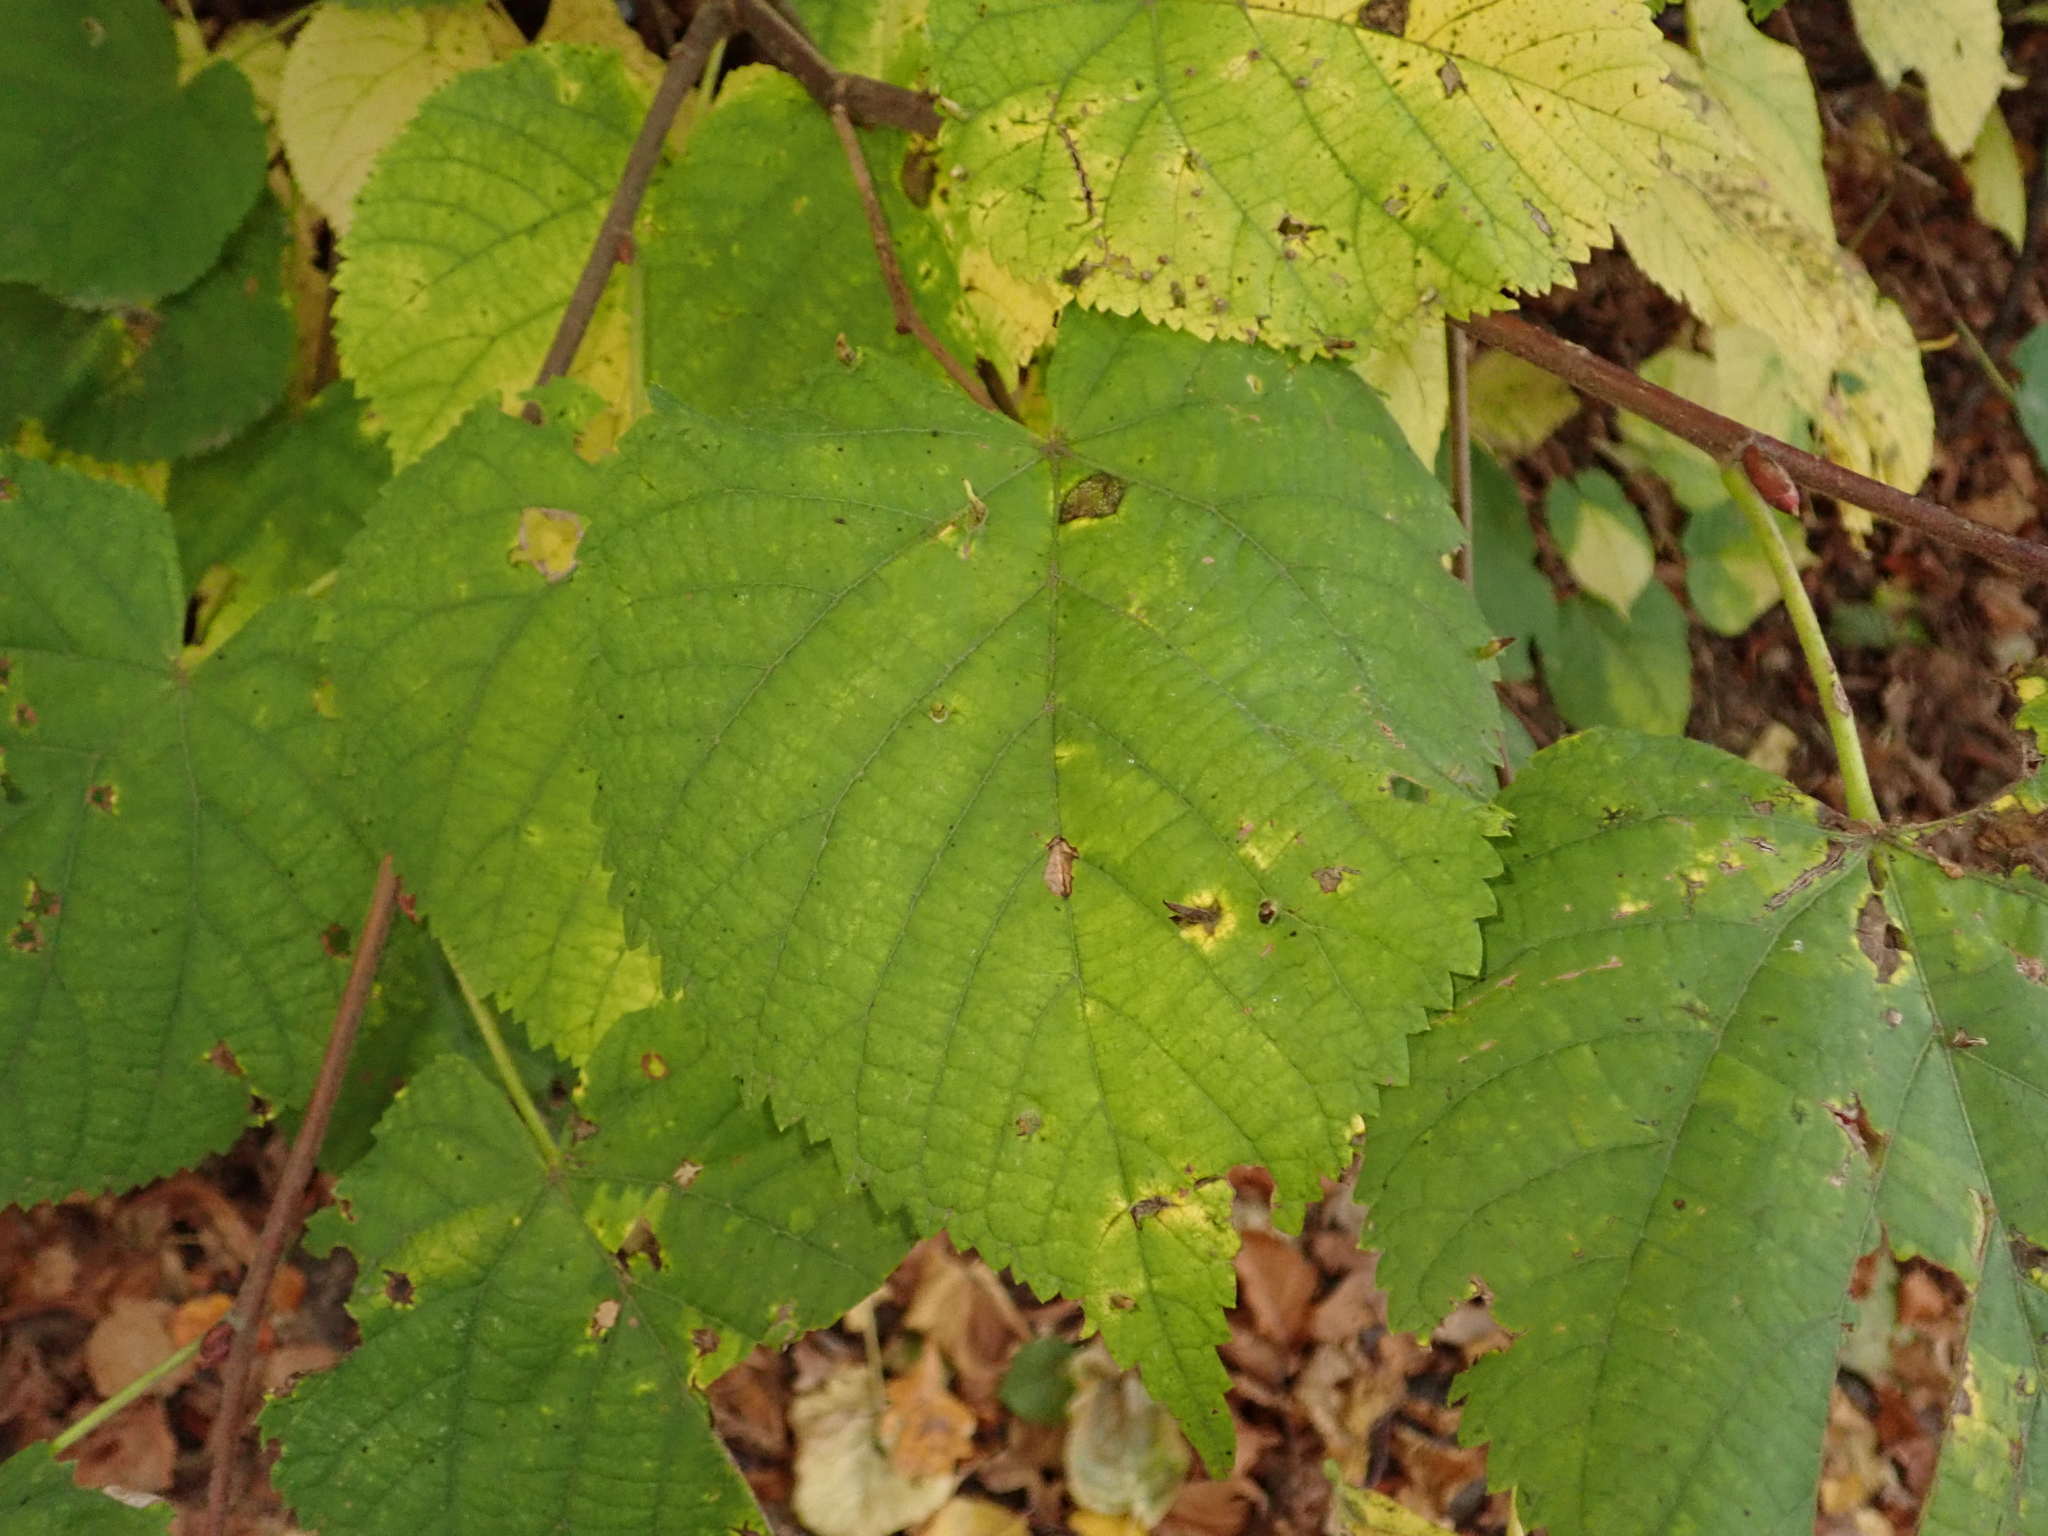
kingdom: Plantae
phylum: Tracheophyta
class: Magnoliopsida
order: Malvales
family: Malvaceae
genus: Tilia
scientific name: Tilia cordata
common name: Small-leaved lime
